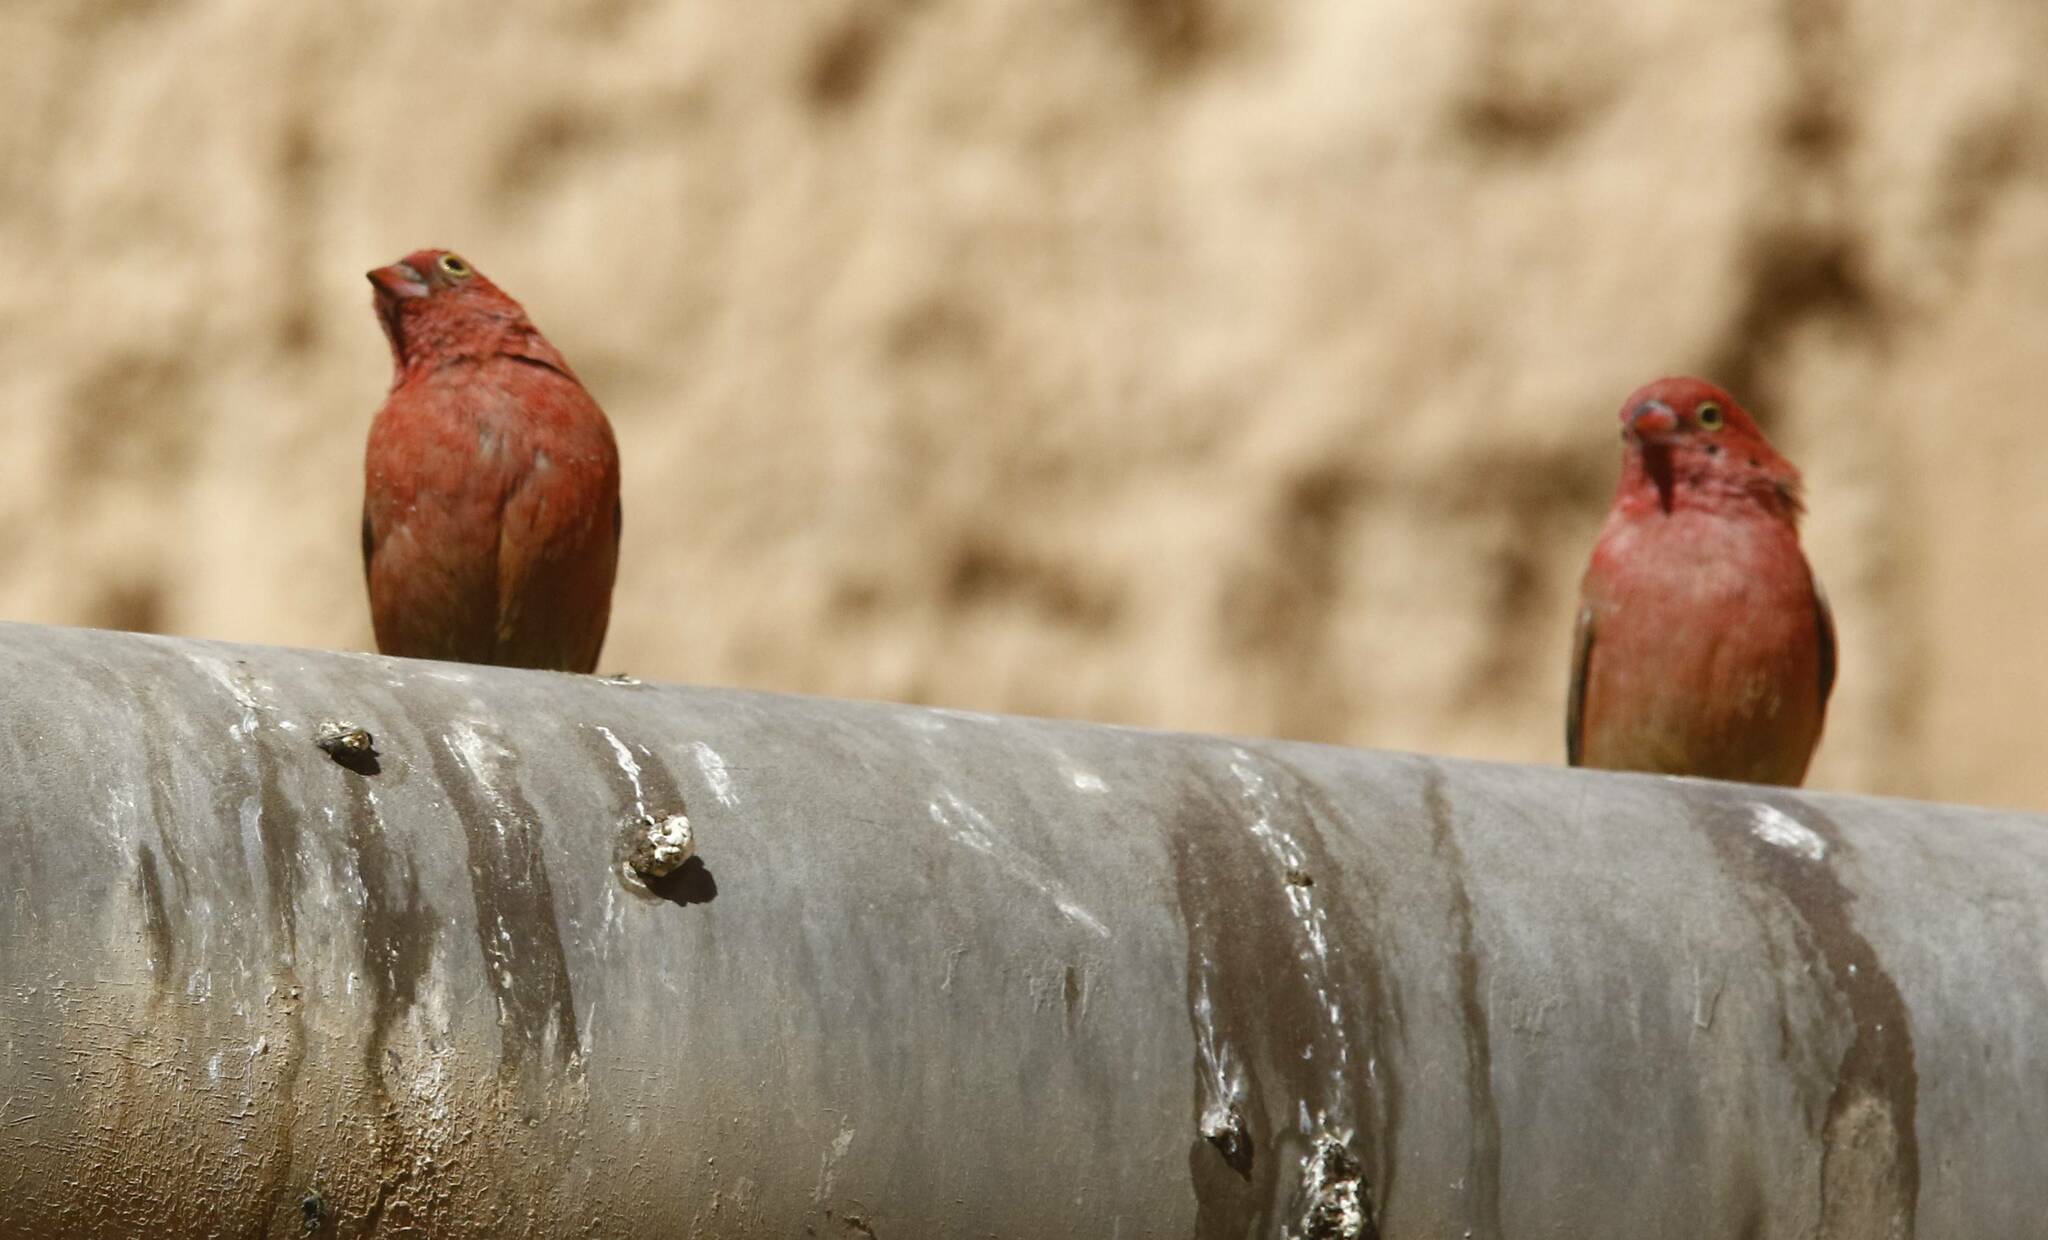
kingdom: Animalia
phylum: Chordata
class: Aves
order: Passeriformes
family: Estrildidae
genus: Lagonosticta
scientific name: Lagonosticta senegala
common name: Red-billed firefinch
